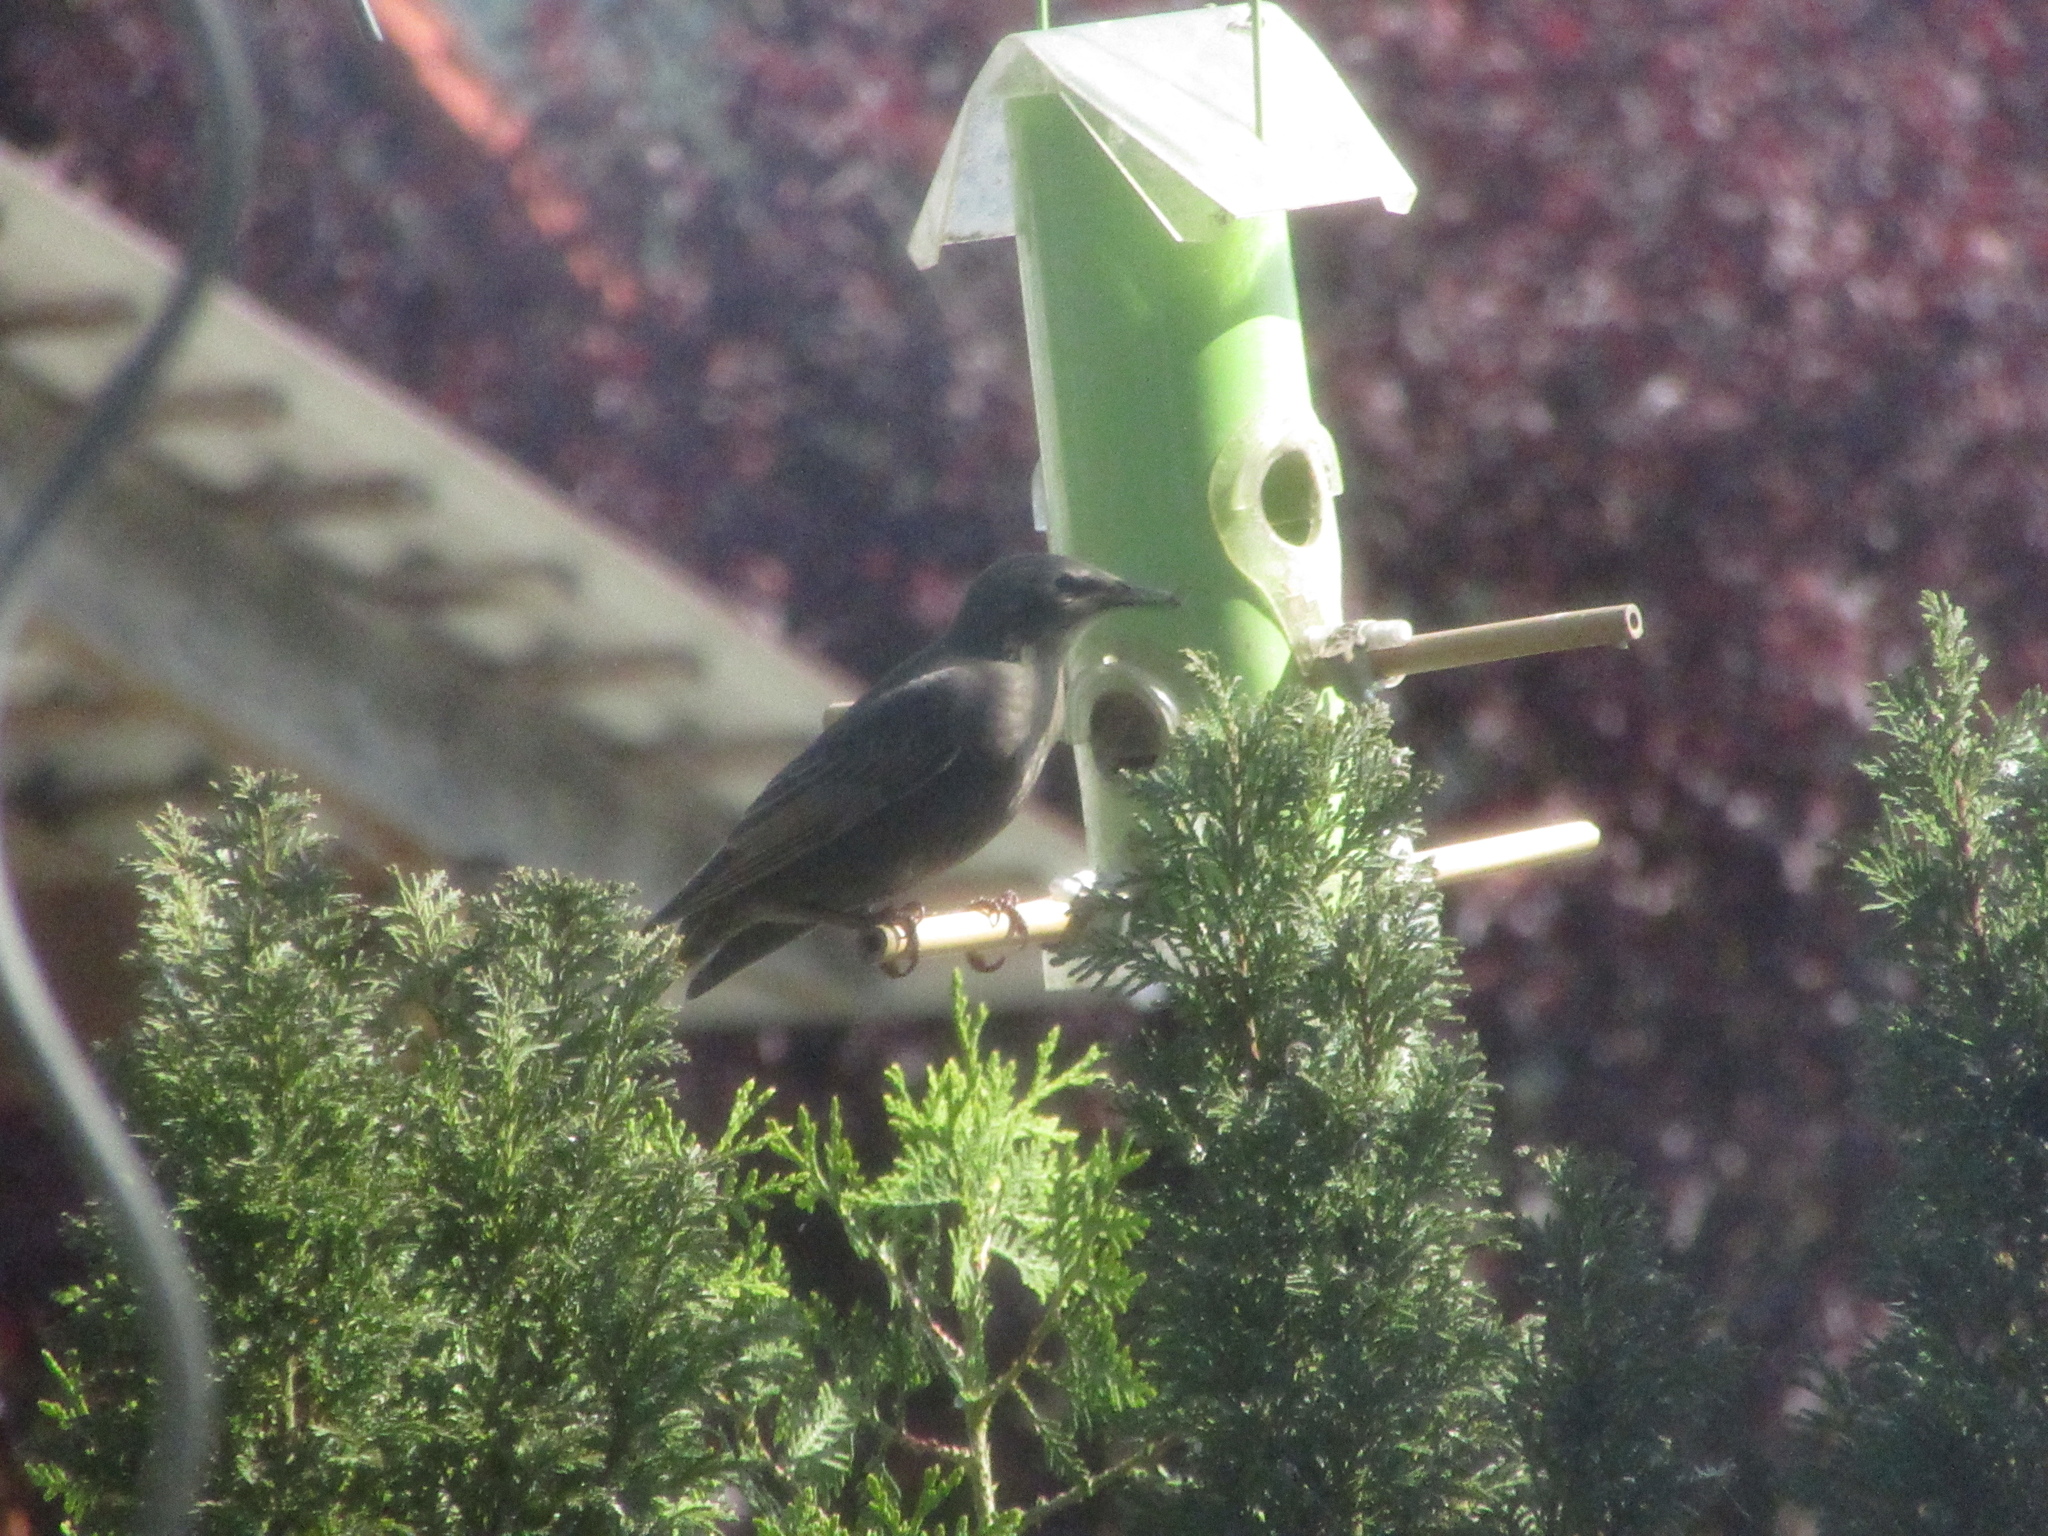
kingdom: Animalia
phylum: Chordata
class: Aves
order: Passeriformes
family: Sturnidae
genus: Sturnus
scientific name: Sturnus vulgaris
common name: Common starling
